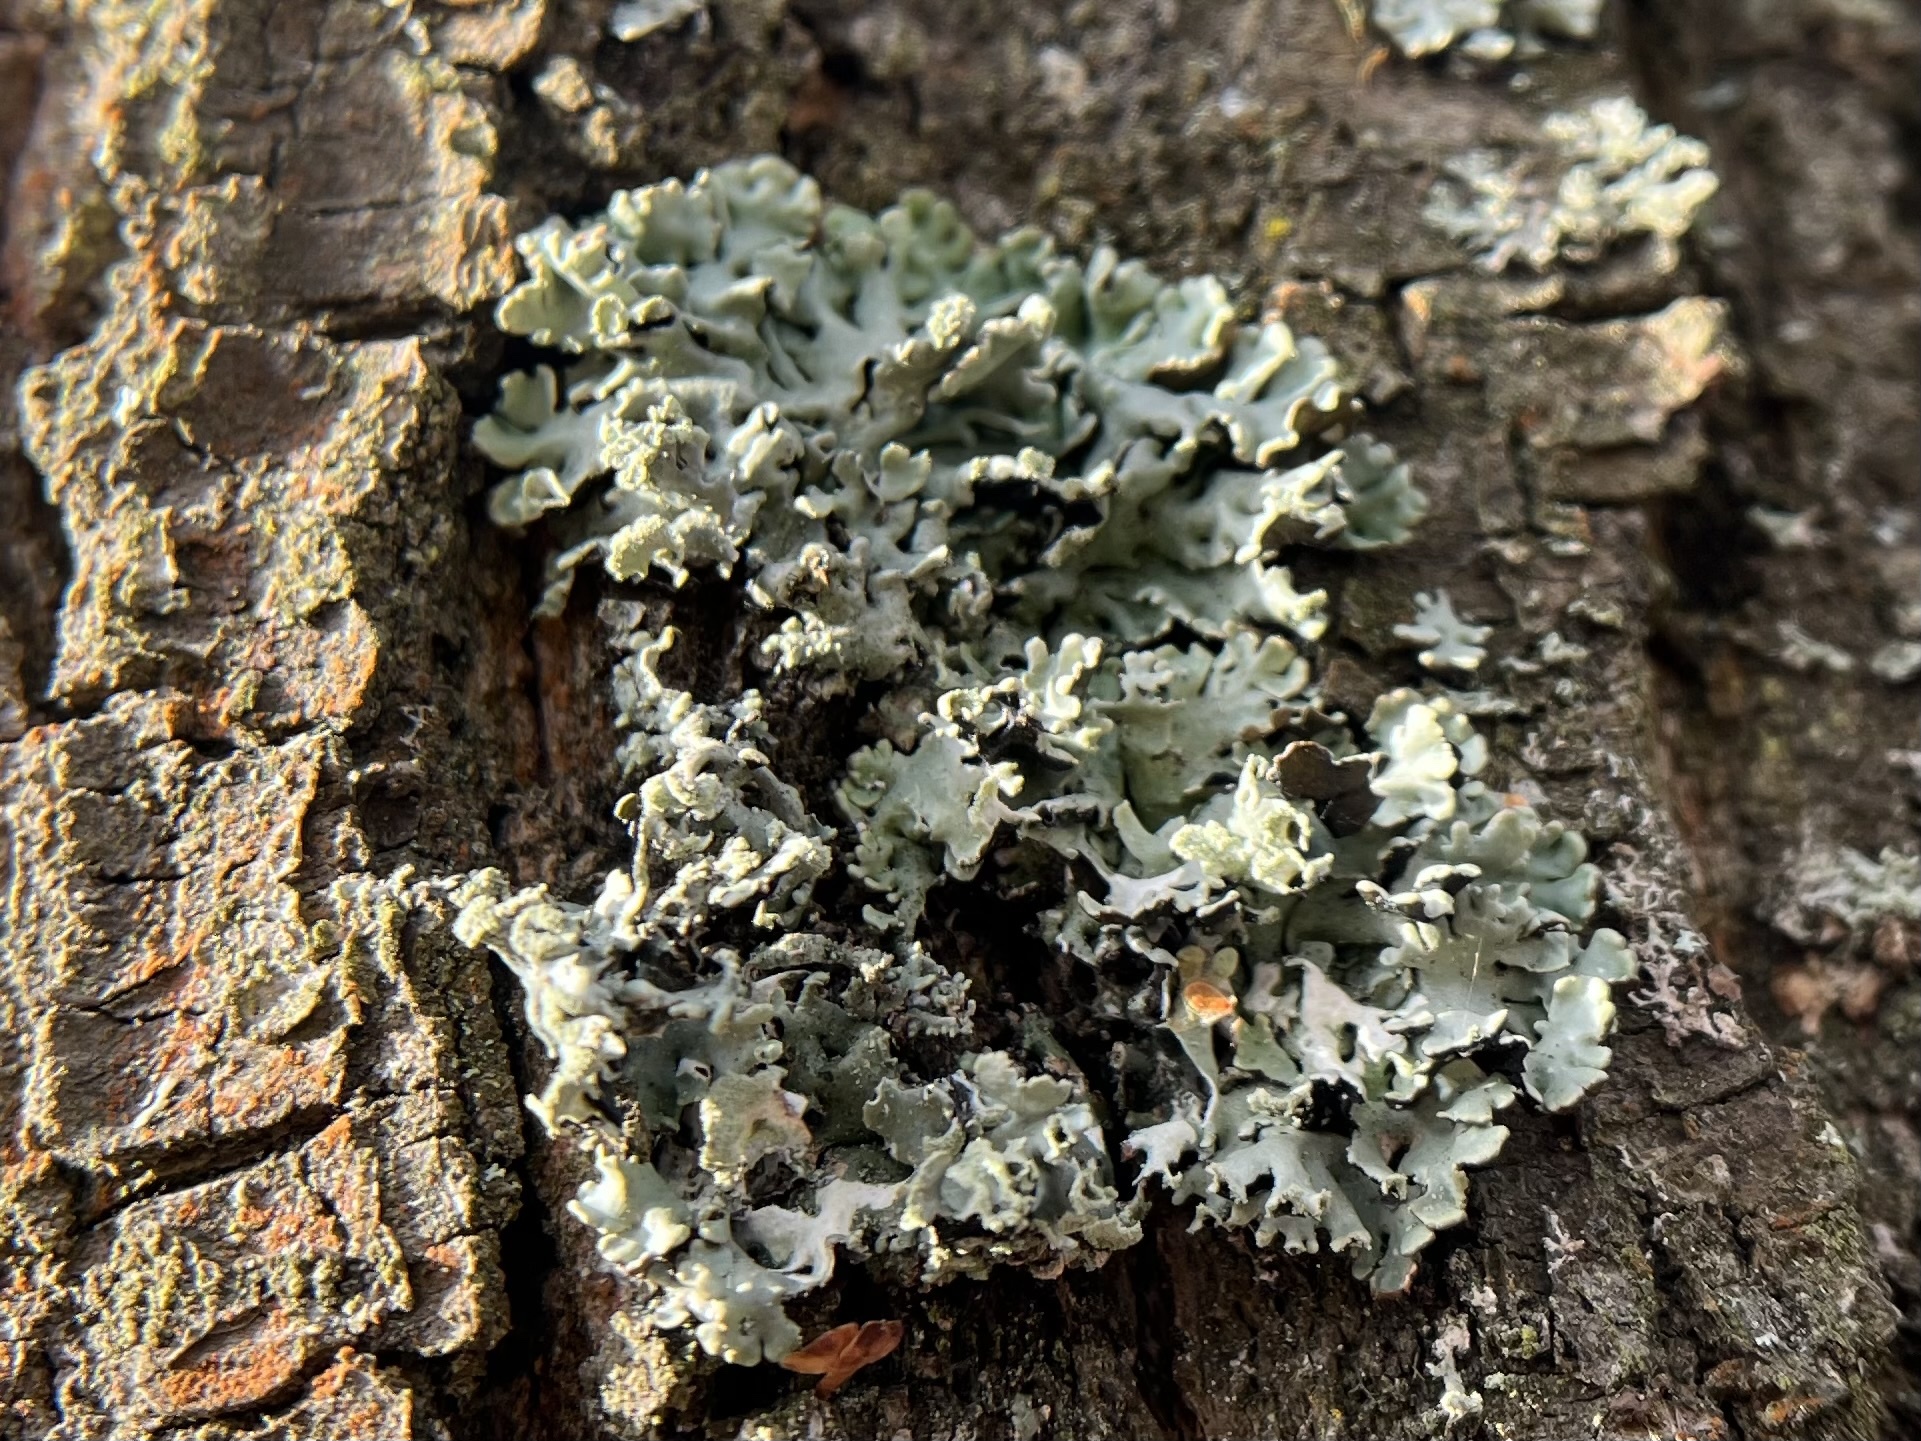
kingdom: Fungi
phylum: Ascomycota
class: Lecanoromycetes
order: Lecanorales
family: Parmeliaceae
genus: Hypogymnia
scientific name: Hypogymnia physodes
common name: Dark crottle
